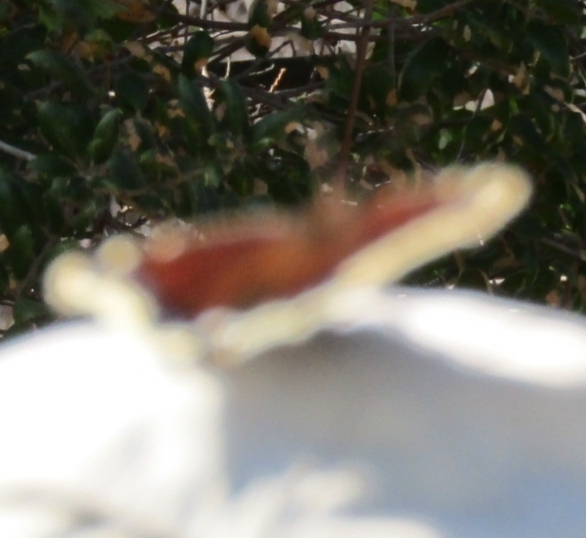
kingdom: Animalia
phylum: Arthropoda
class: Insecta
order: Lepidoptera
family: Nymphalidae
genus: Nymphalis
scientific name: Nymphalis antiopa
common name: Camberwell beauty
